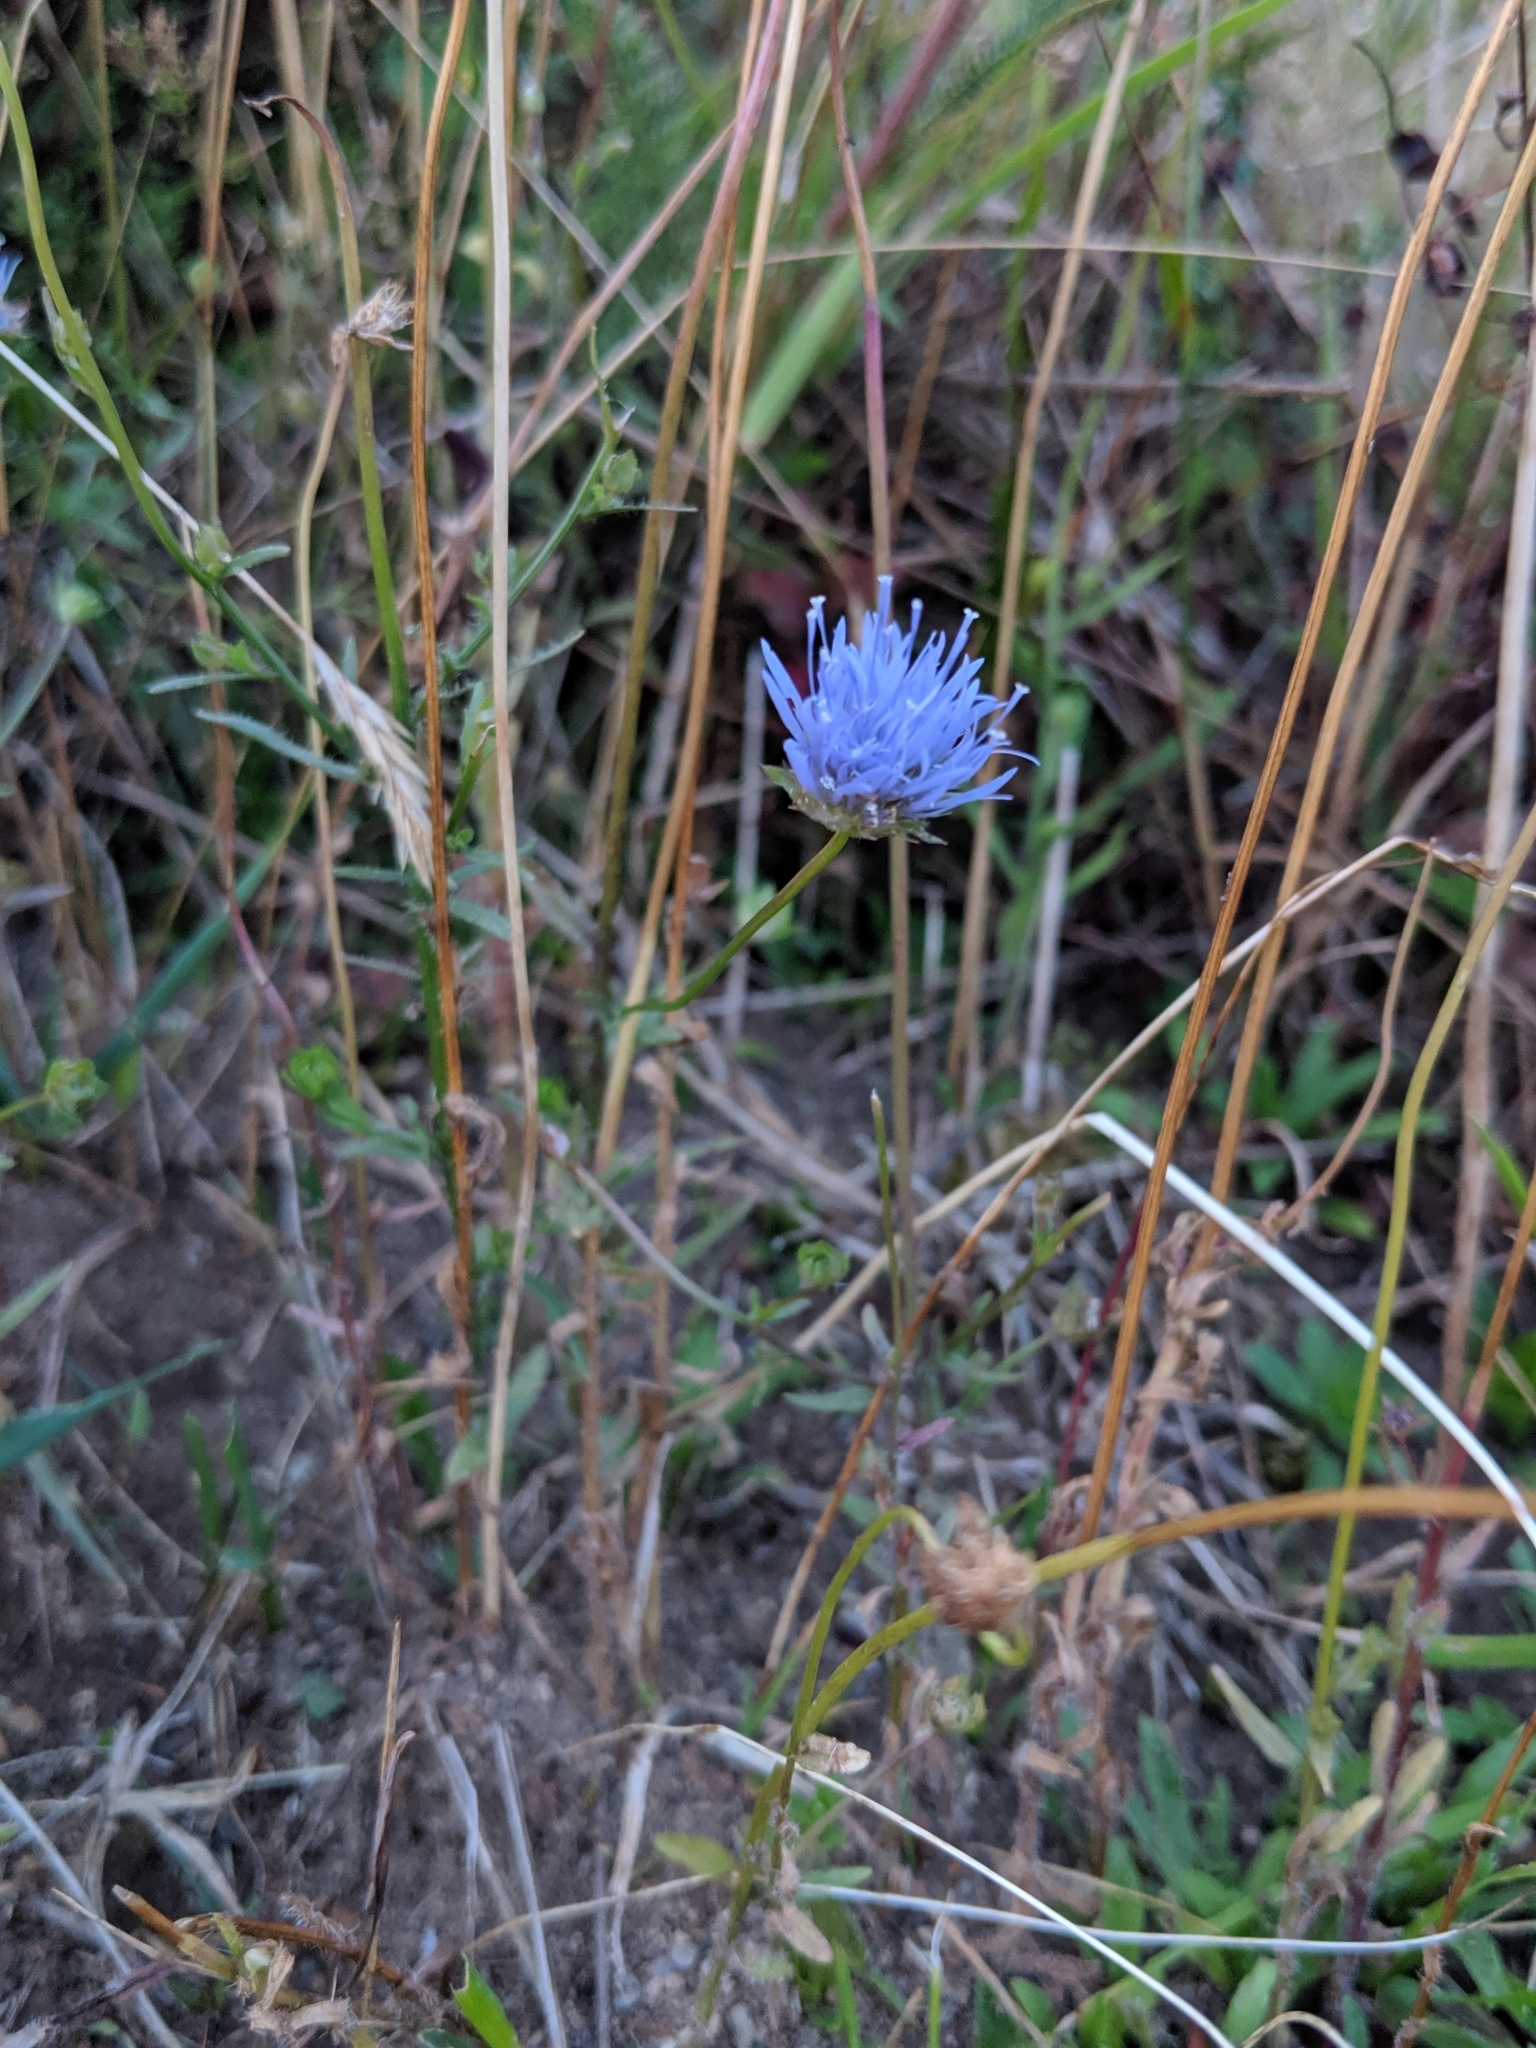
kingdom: Plantae
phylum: Tracheophyta
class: Magnoliopsida
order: Asterales
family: Campanulaceae
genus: Jasione
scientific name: Jasione montana
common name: Sheep's-bit
